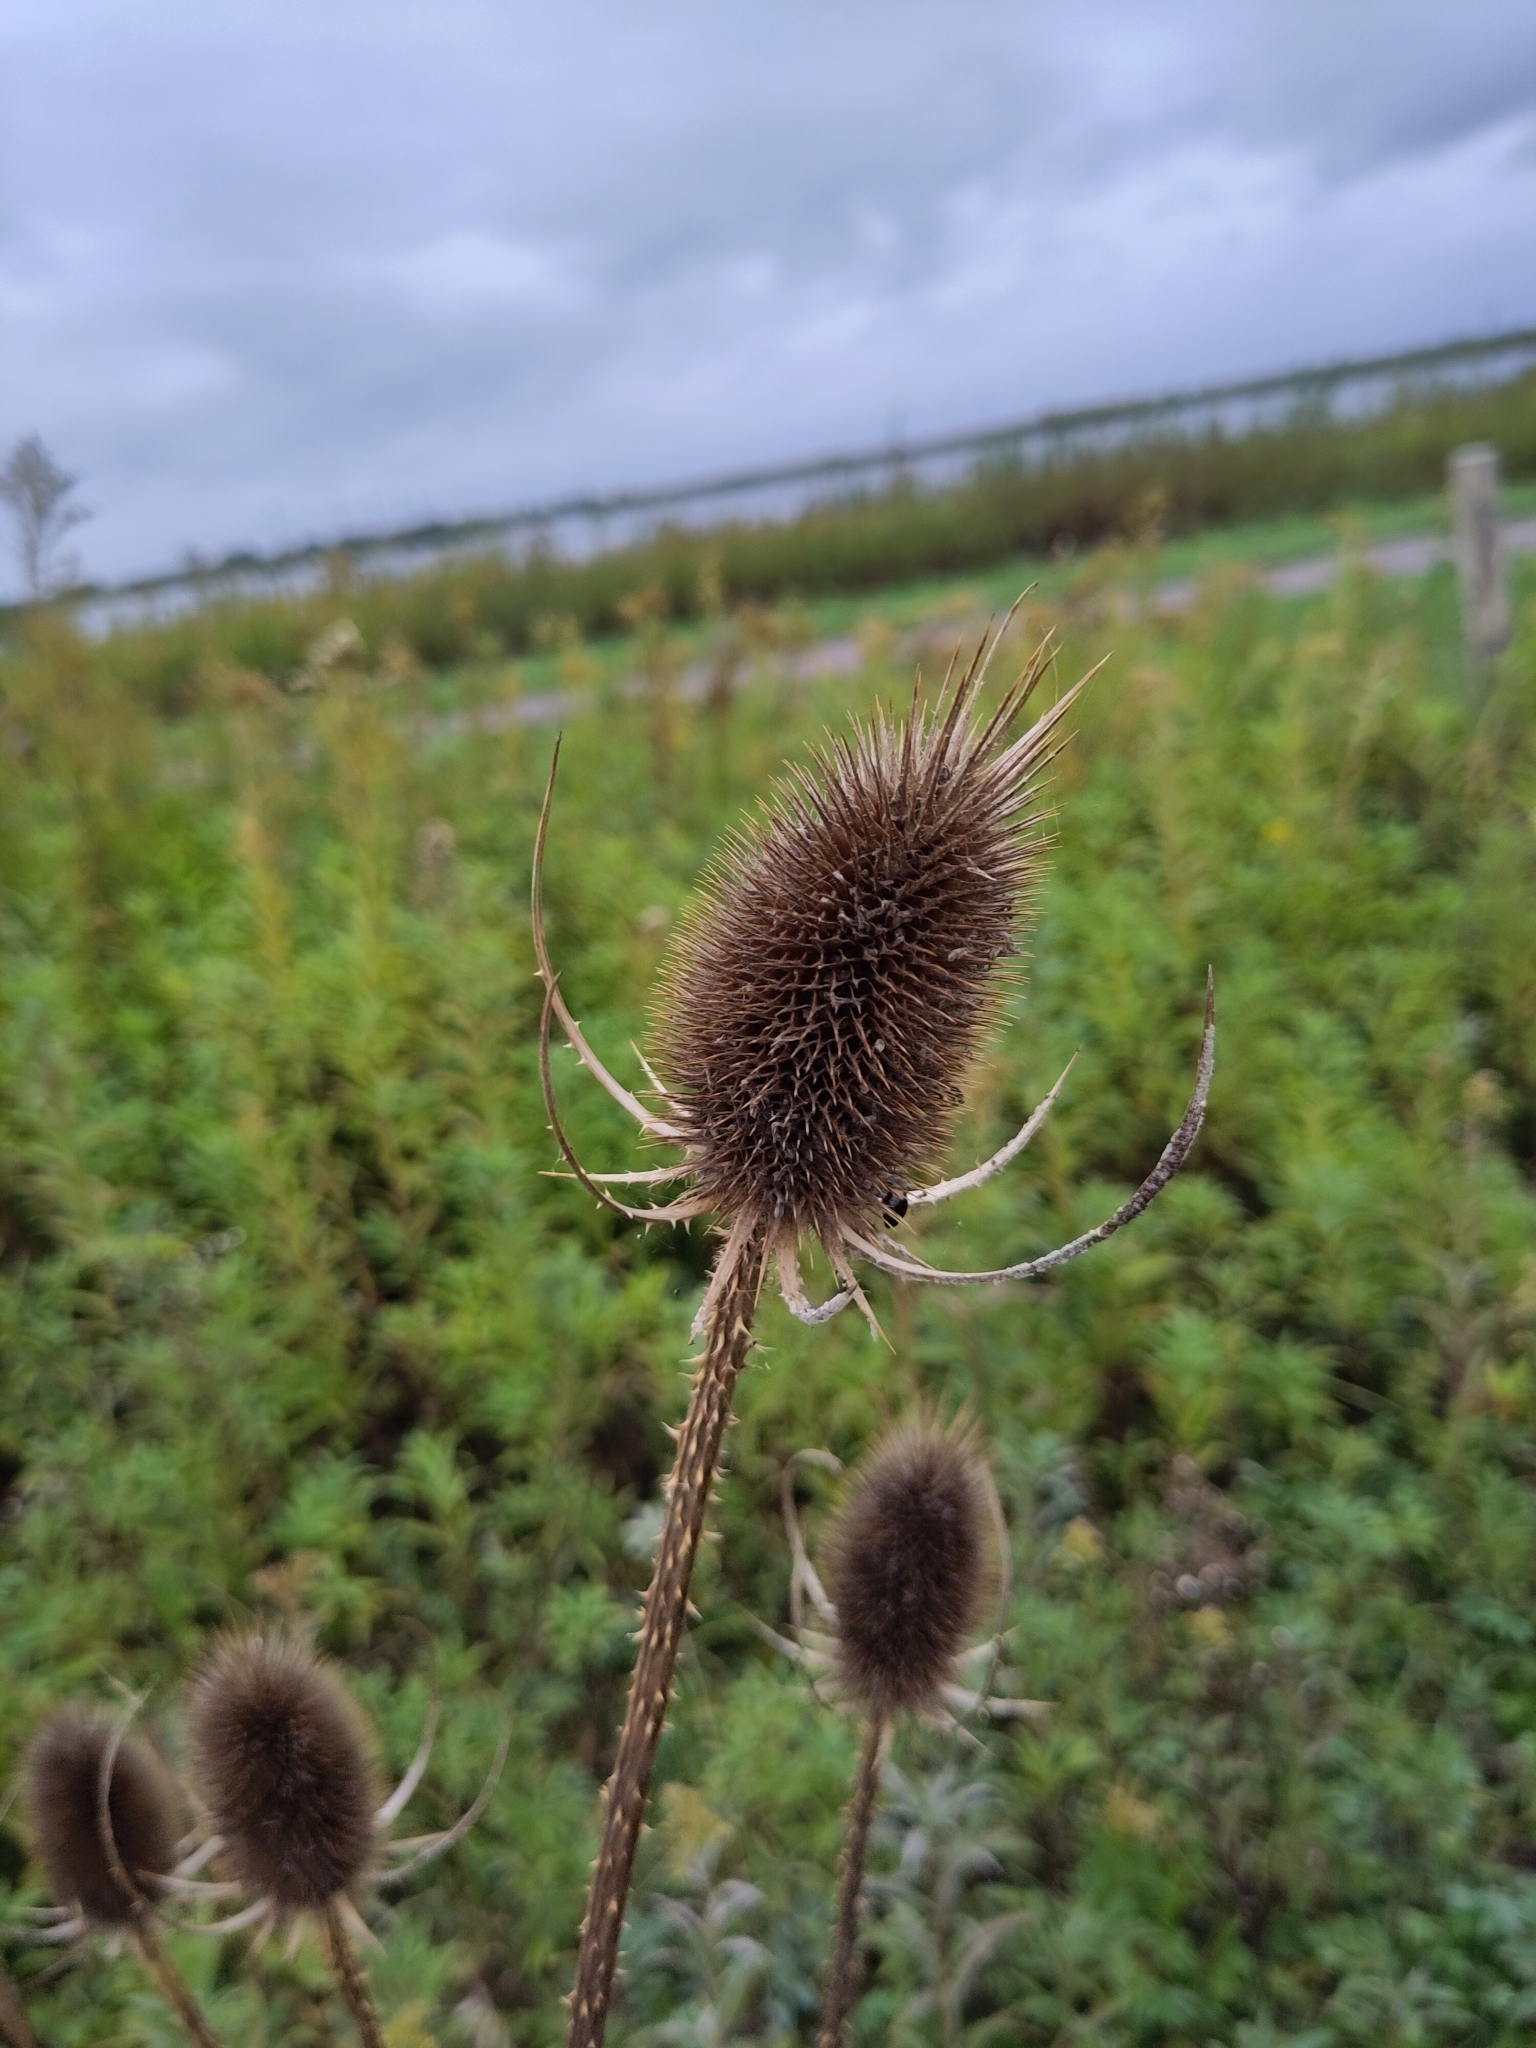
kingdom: Plantae
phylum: Tracheophyta
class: Magnoliopsida
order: Dipsacales
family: Caprifoliaceae
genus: Dipsacus
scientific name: Dipsacus fullonum
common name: Teasel
